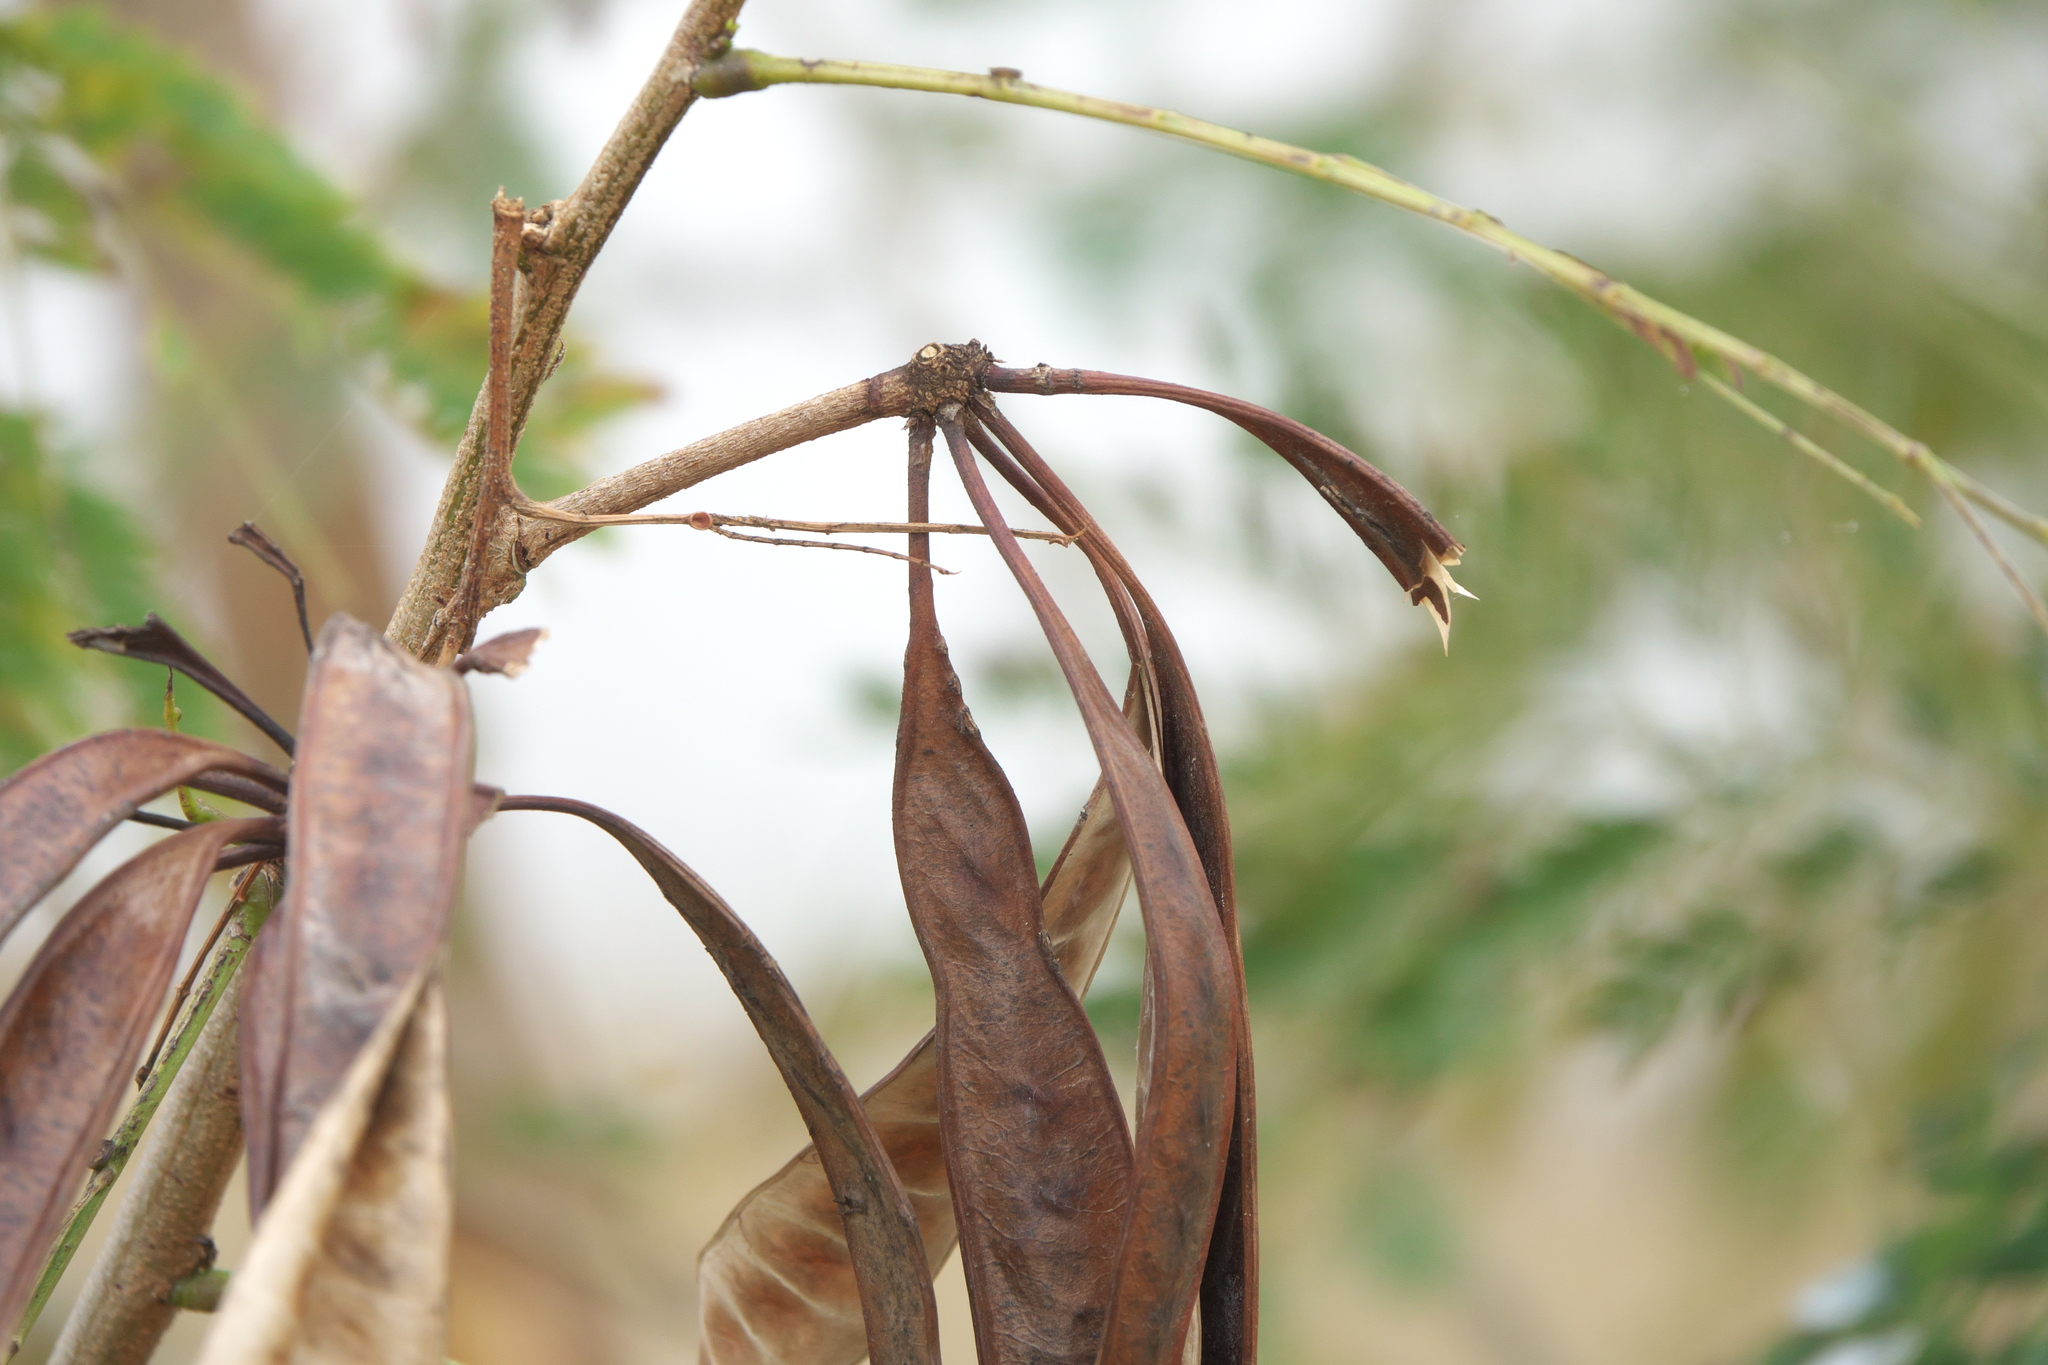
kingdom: Plantae
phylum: Tracheophyta
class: Magnoliopsida
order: Fabales
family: Fabaceae
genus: Leucaena
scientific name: Leucaena leucocephala
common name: White leadtree
